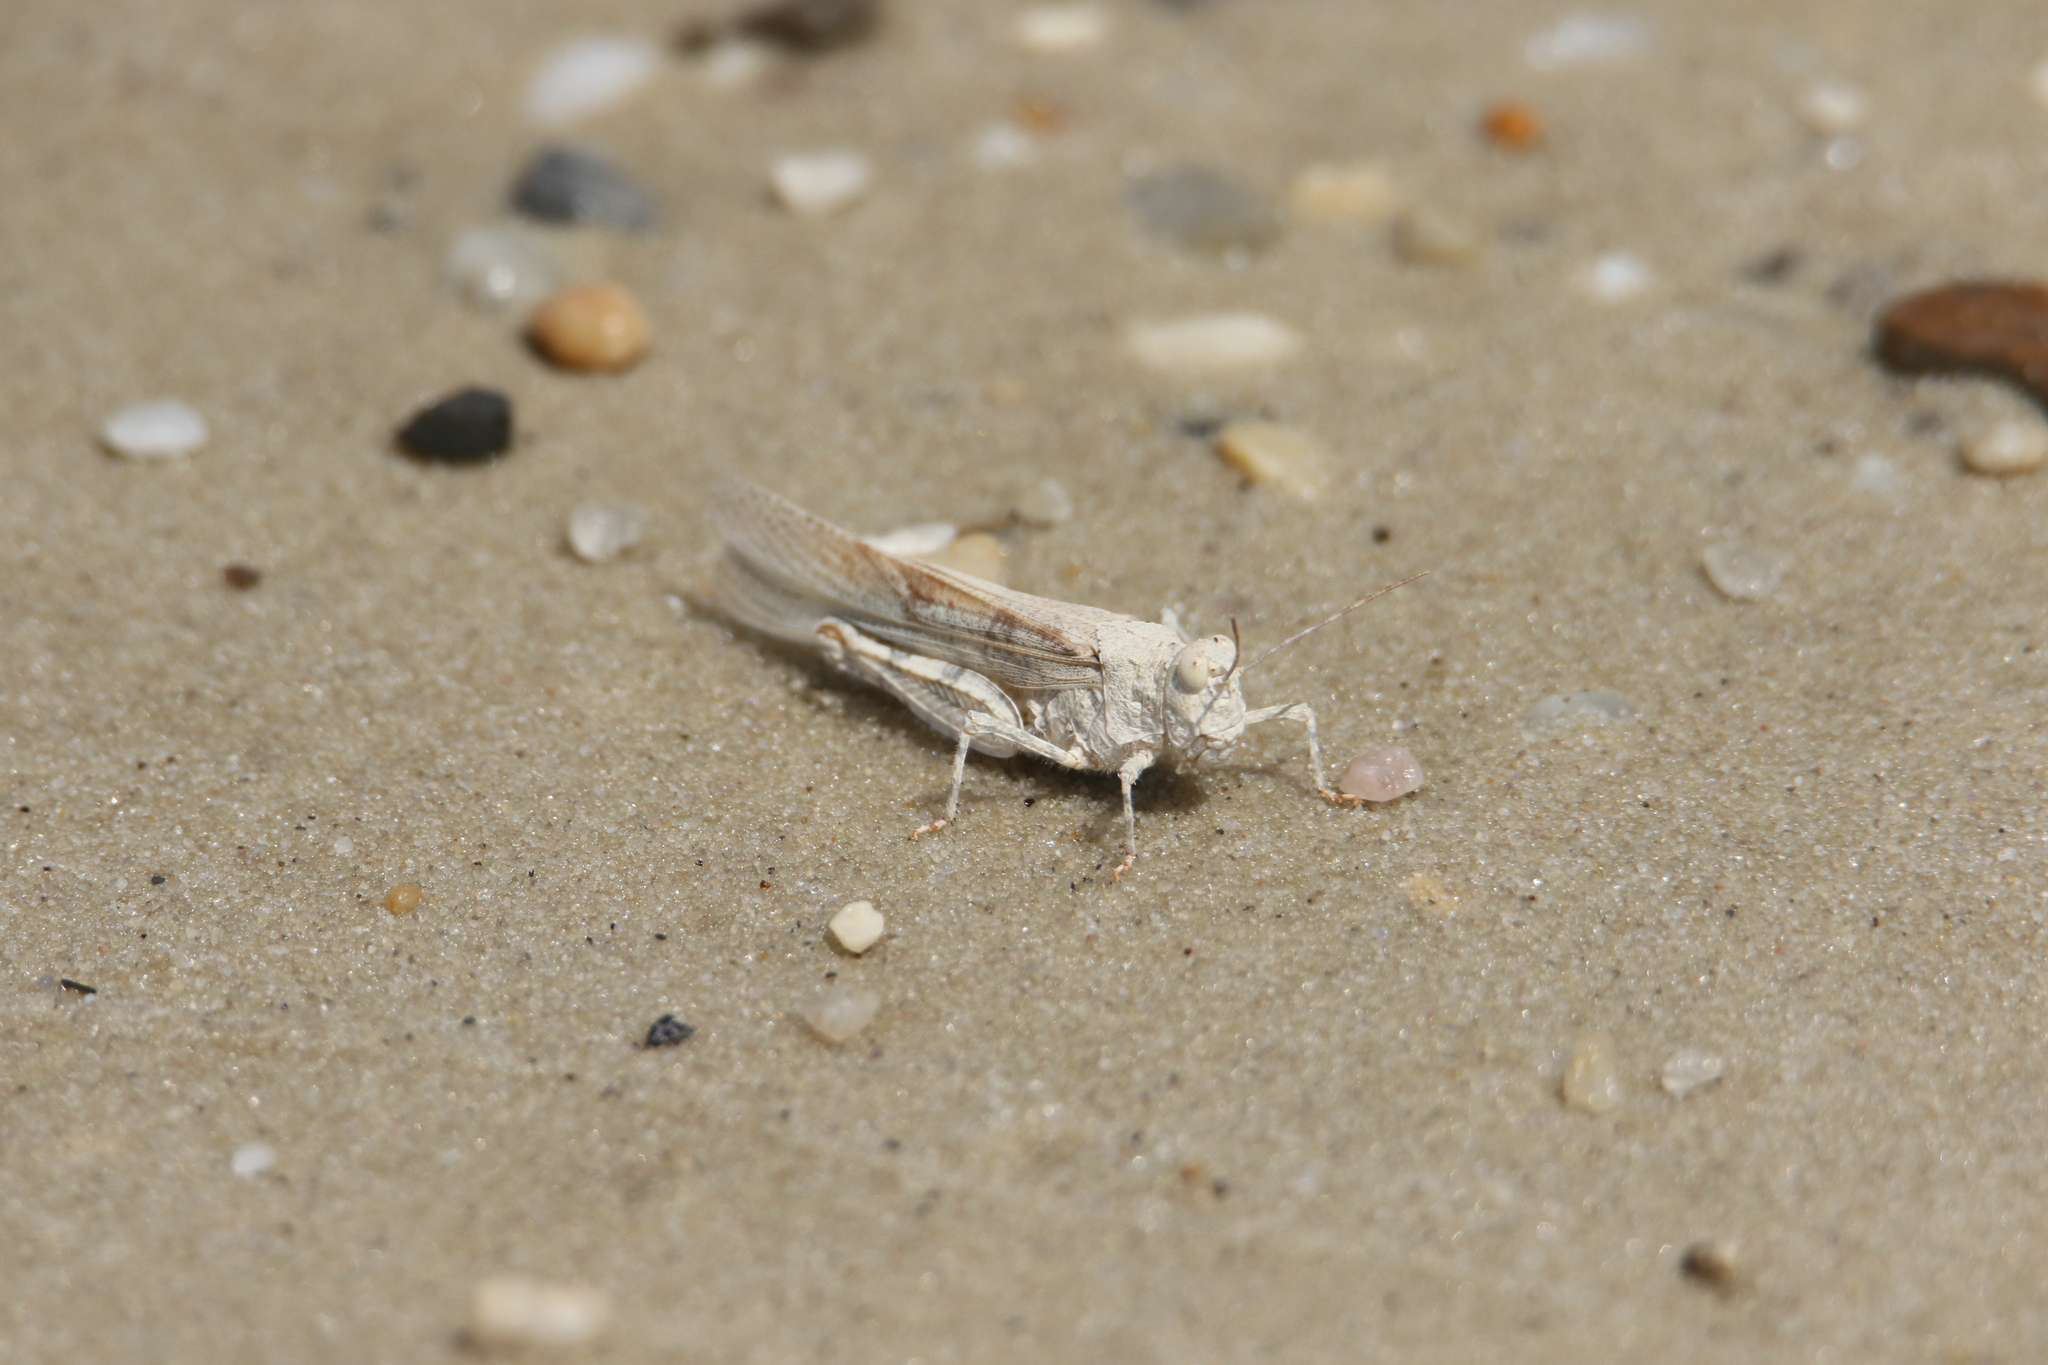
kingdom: Animalia
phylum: Arthropoda
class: Insecta
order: Orthoptera
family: Acrididae
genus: Trimerotropis
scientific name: Trimerotropis maritima
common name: Seaside locust
